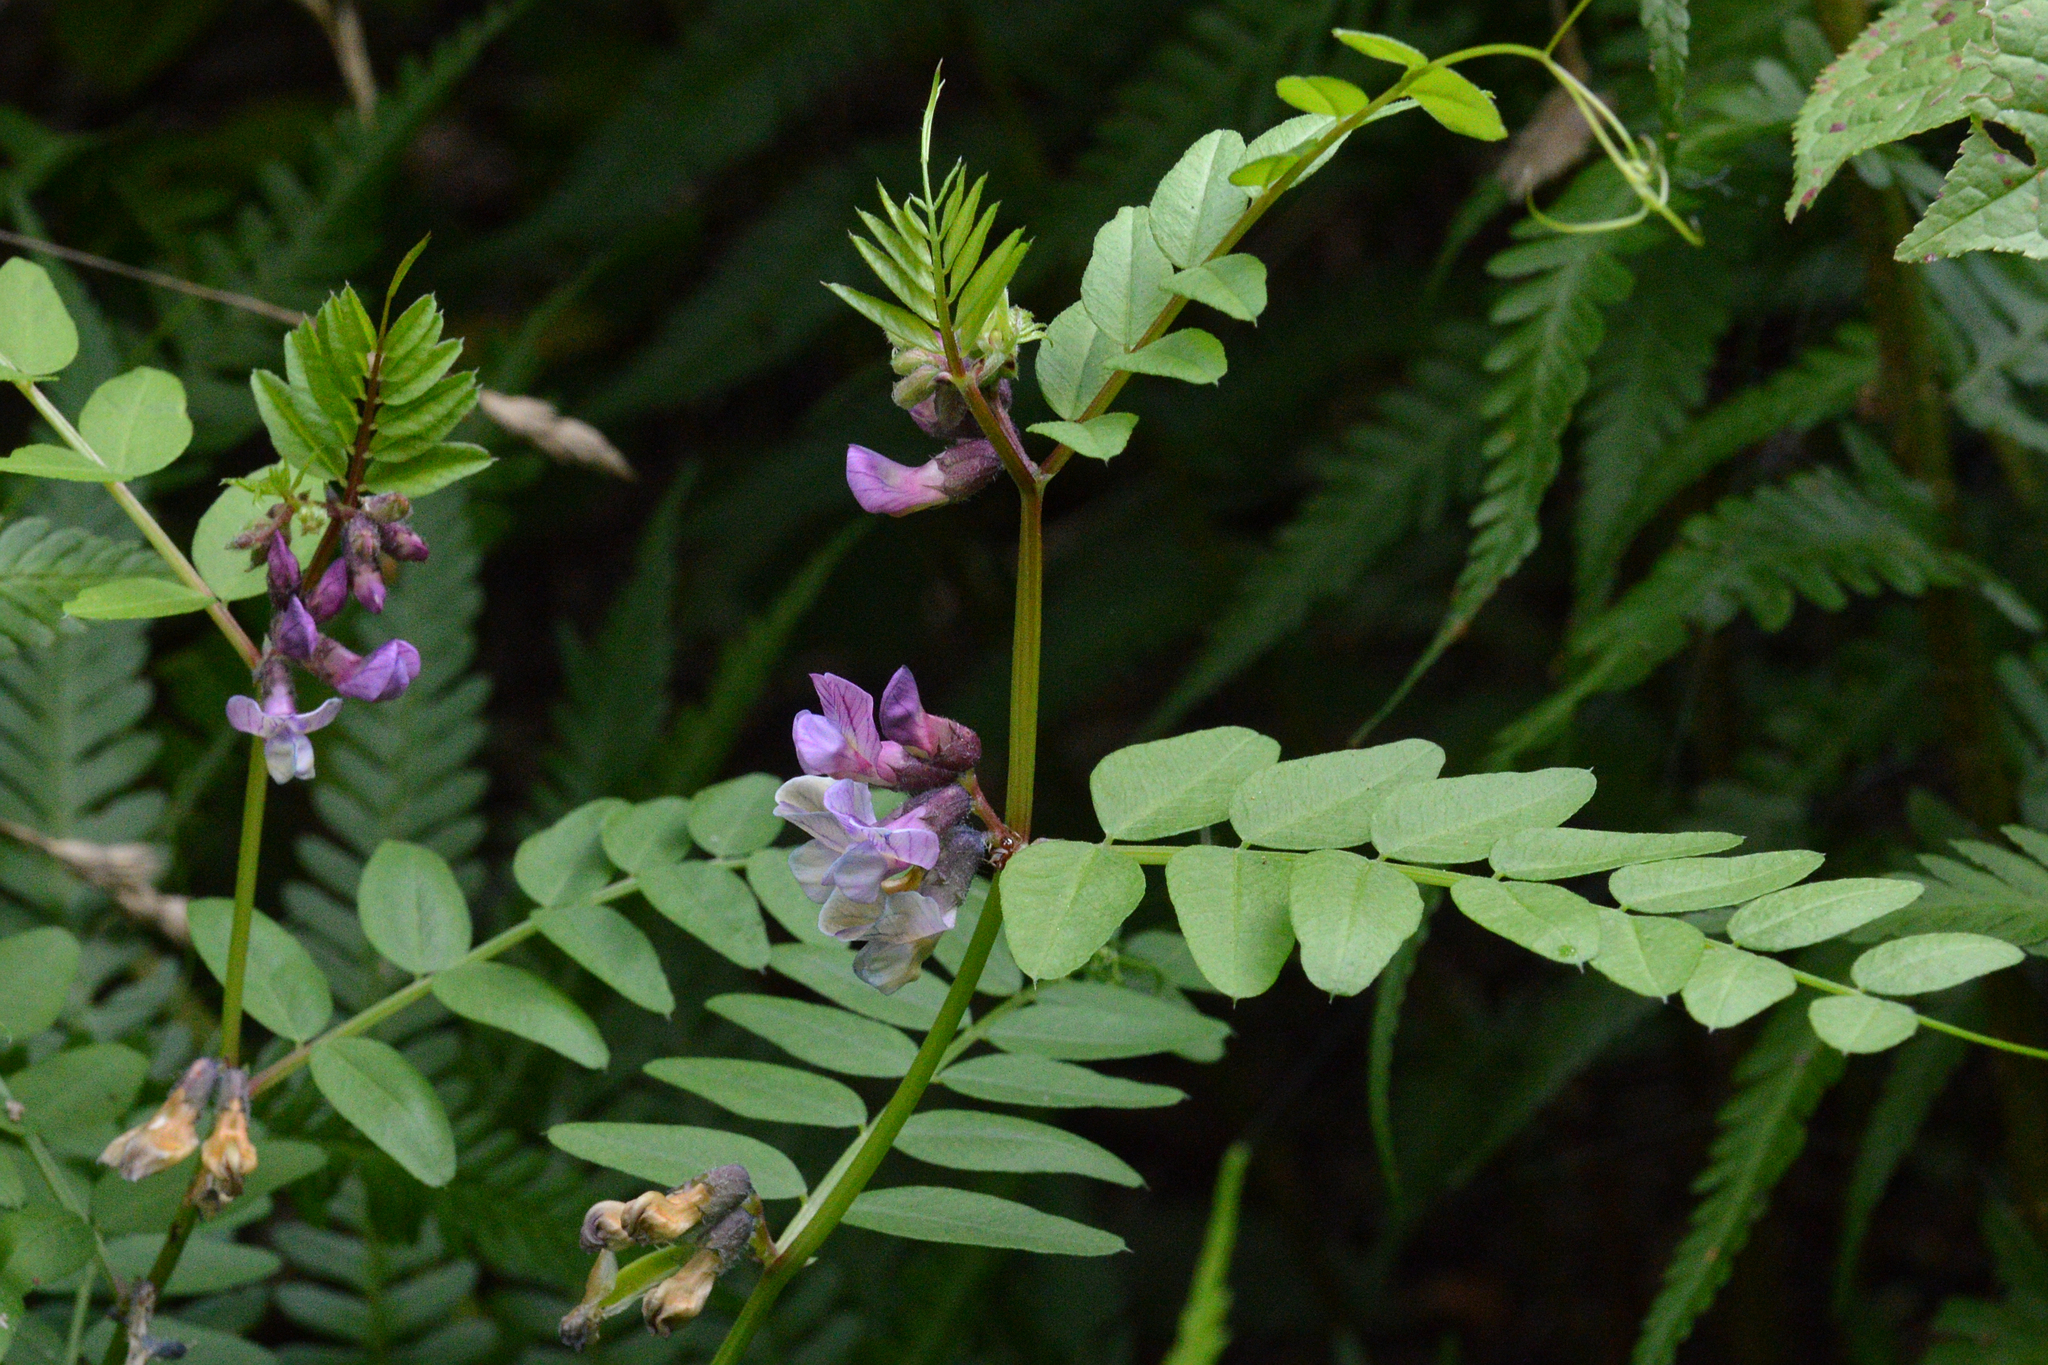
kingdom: Plantae
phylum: Tracheophyta
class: Magnoliopsida
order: Fabales
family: Fabaceae
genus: Vicia
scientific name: Vicia sepium
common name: Bush vetch
